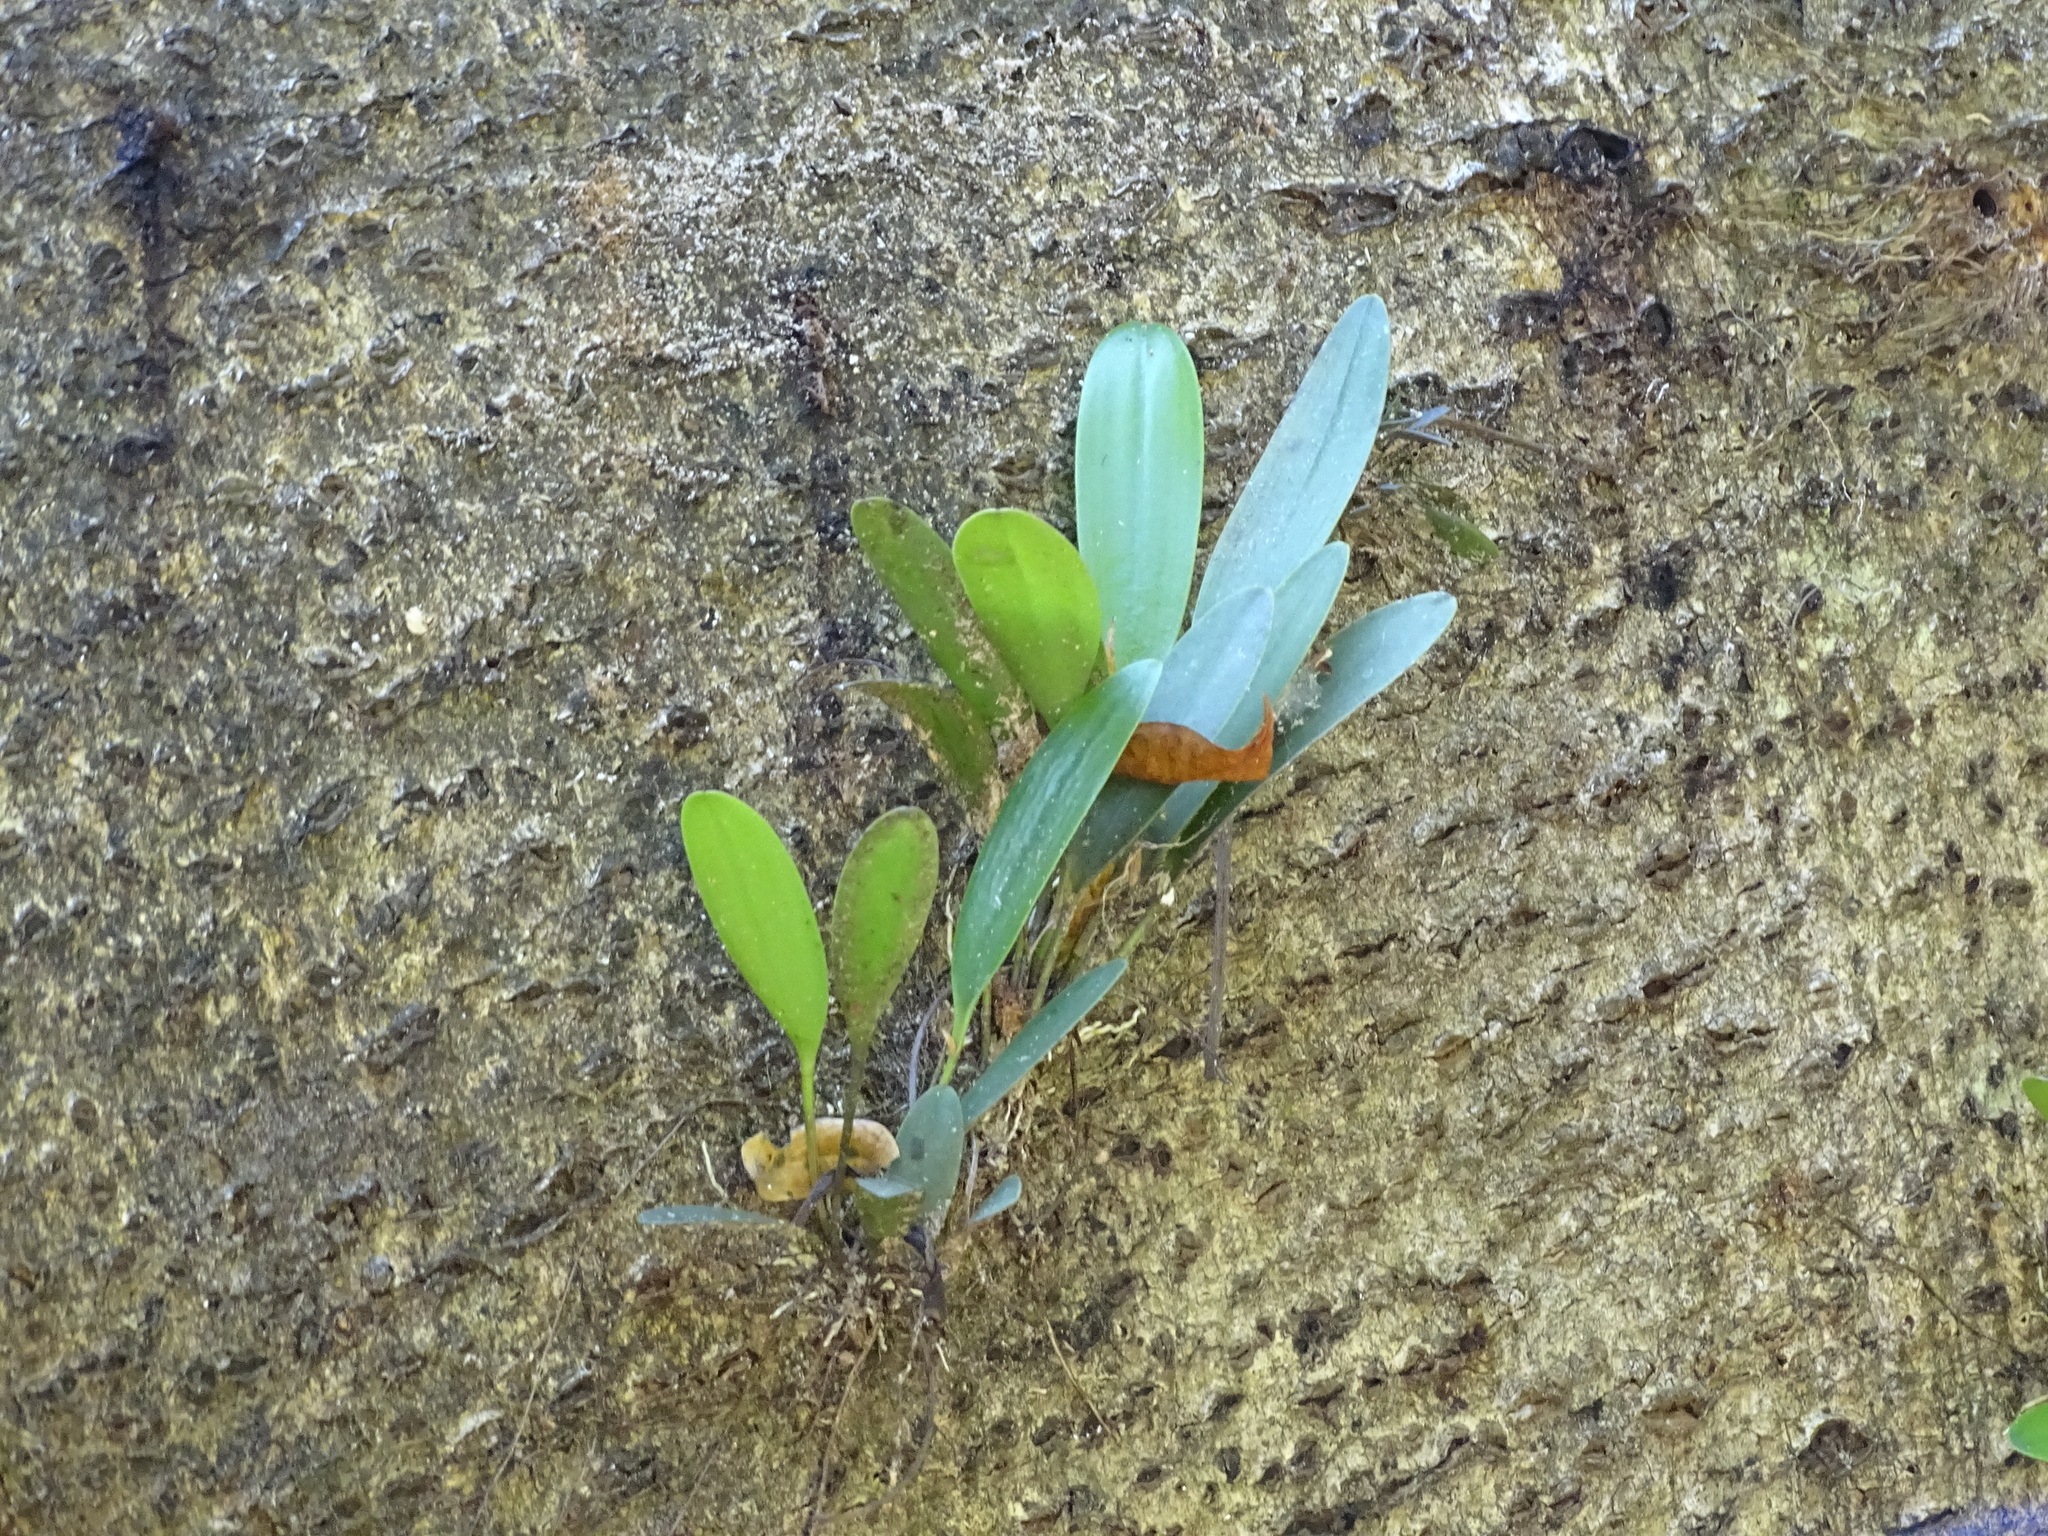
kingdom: Plantae
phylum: Tracheophyta
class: Liliopsida
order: Asparagales
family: Orchidaceae
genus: Pleurothallis
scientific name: Pleurothallis quadrifida
